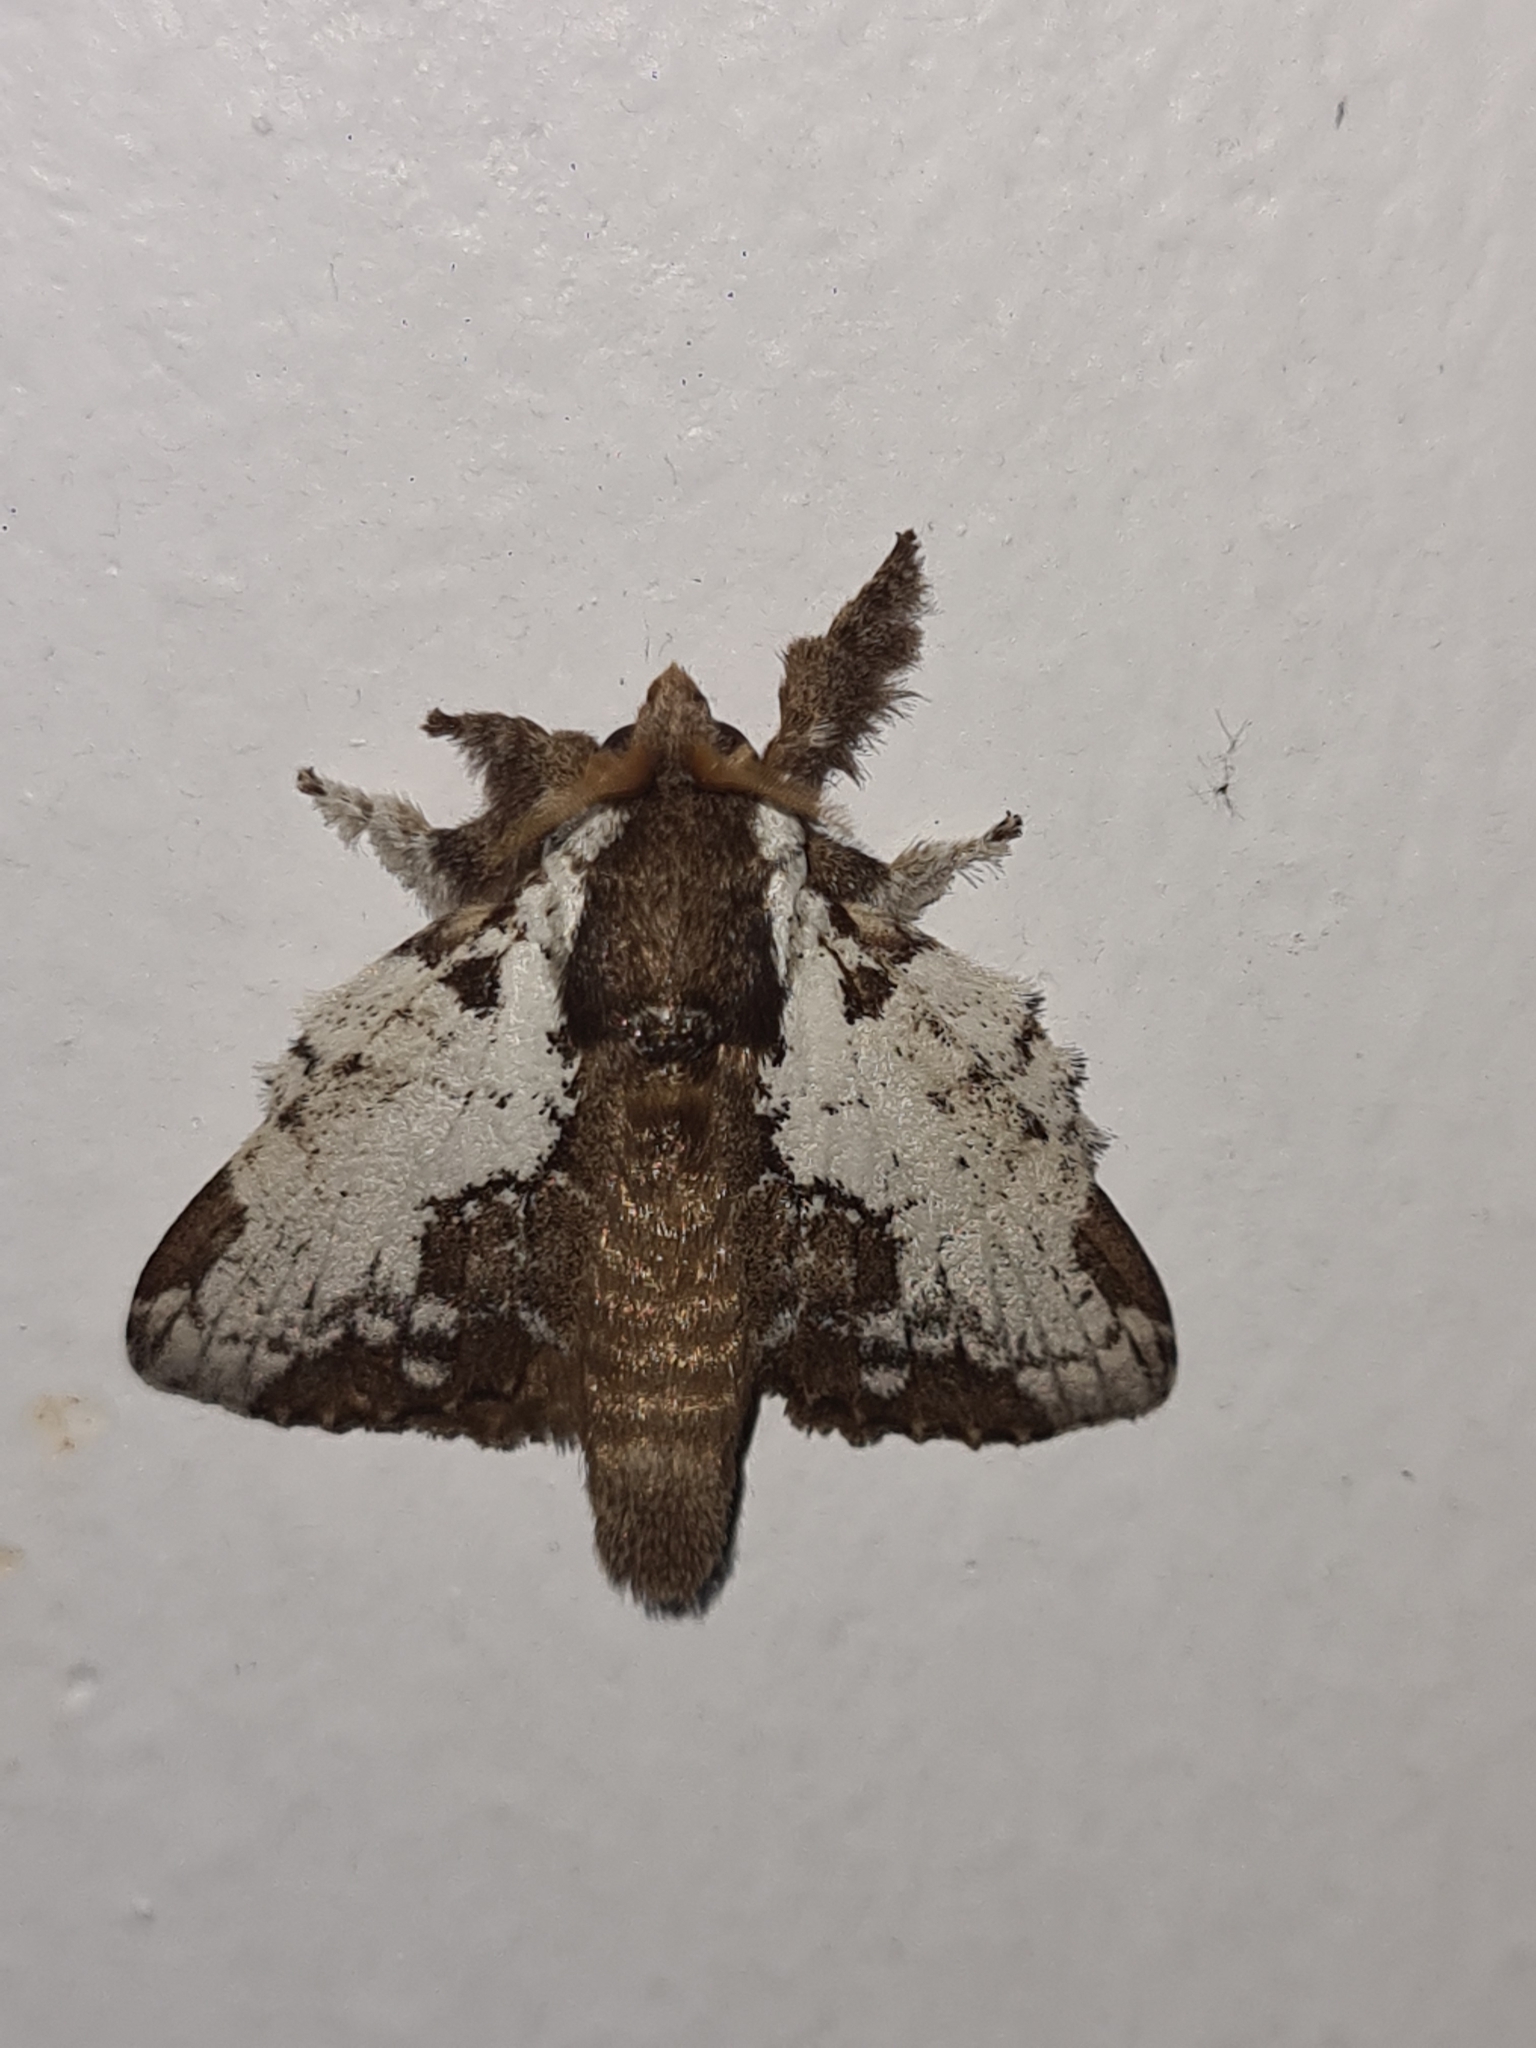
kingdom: Animalia
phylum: Arthropoda
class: Insecta
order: Lepidoptera
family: Lasiocampidae
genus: Euglyphis
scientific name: Euglyphis braganza
